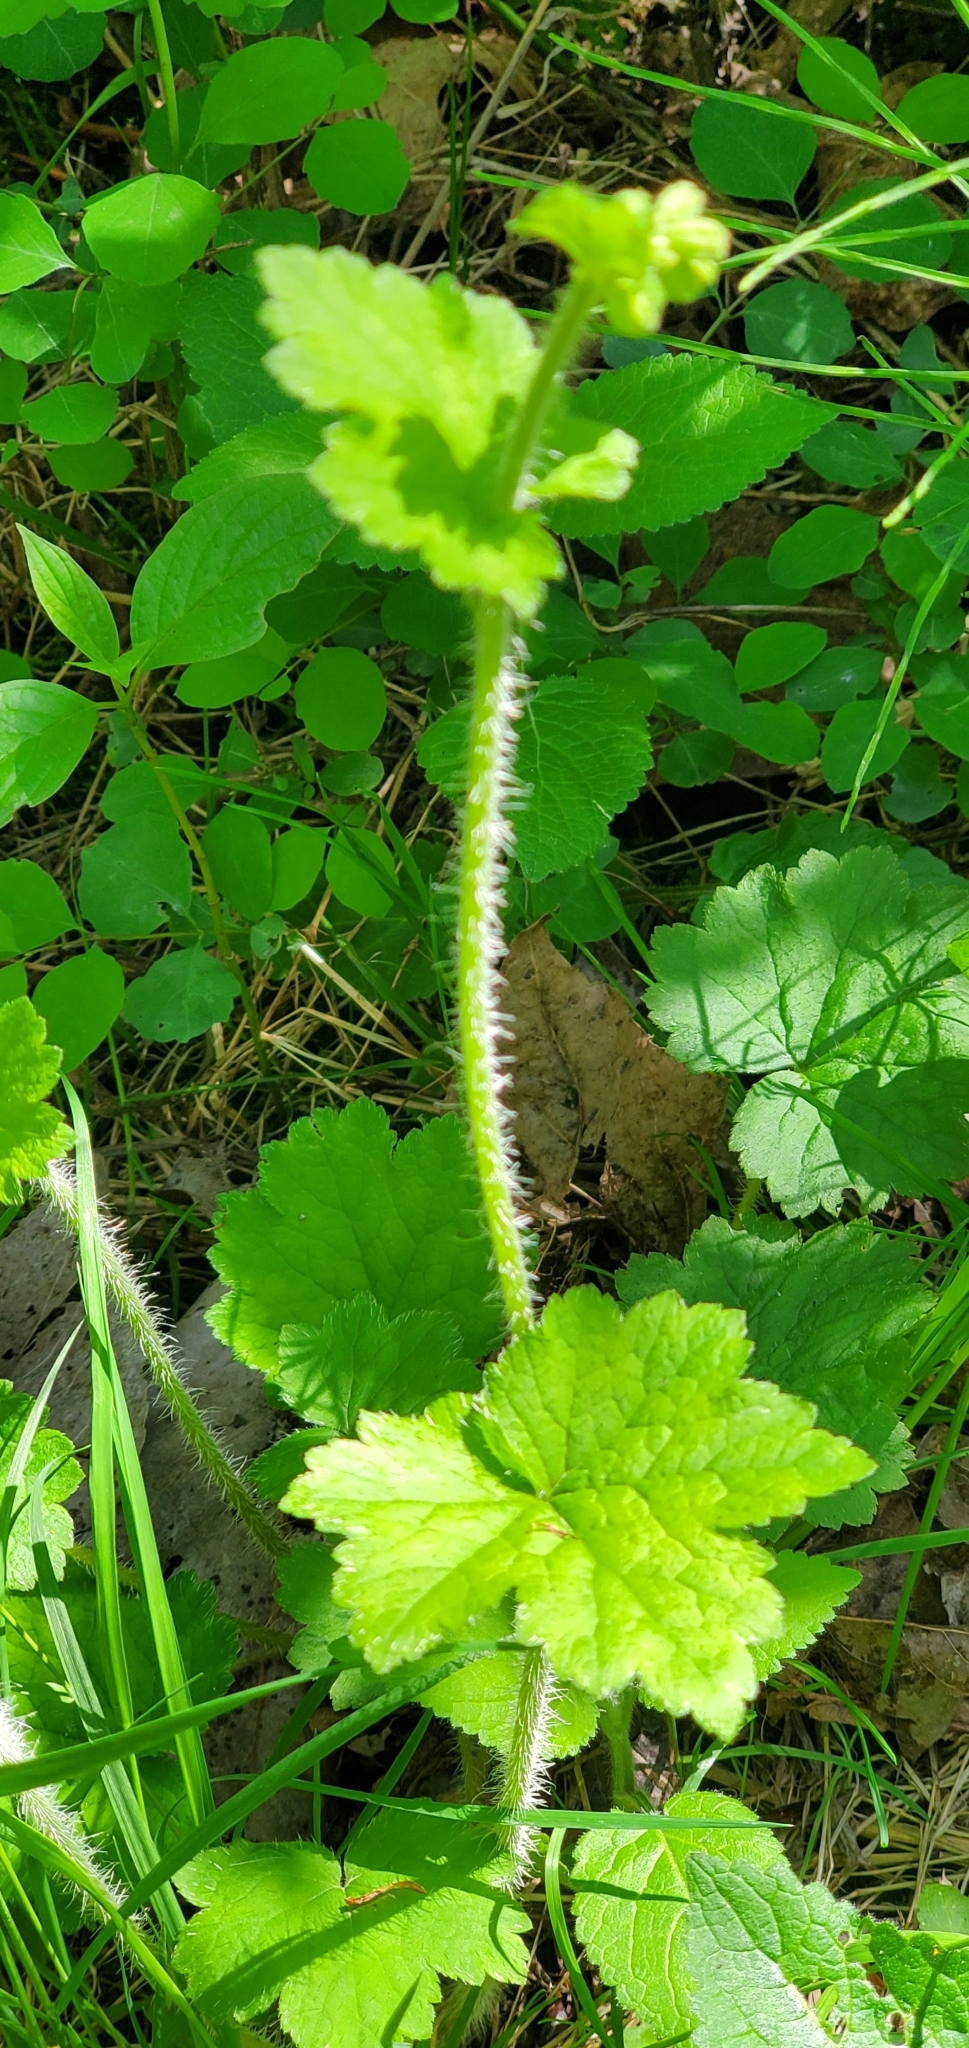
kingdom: Plantae
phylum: Tracheophyta
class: Magnoliopsida
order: Saxifragales
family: Saxifragaceae
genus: Tellima
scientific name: Tellima grandiflora
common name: Fringecups
